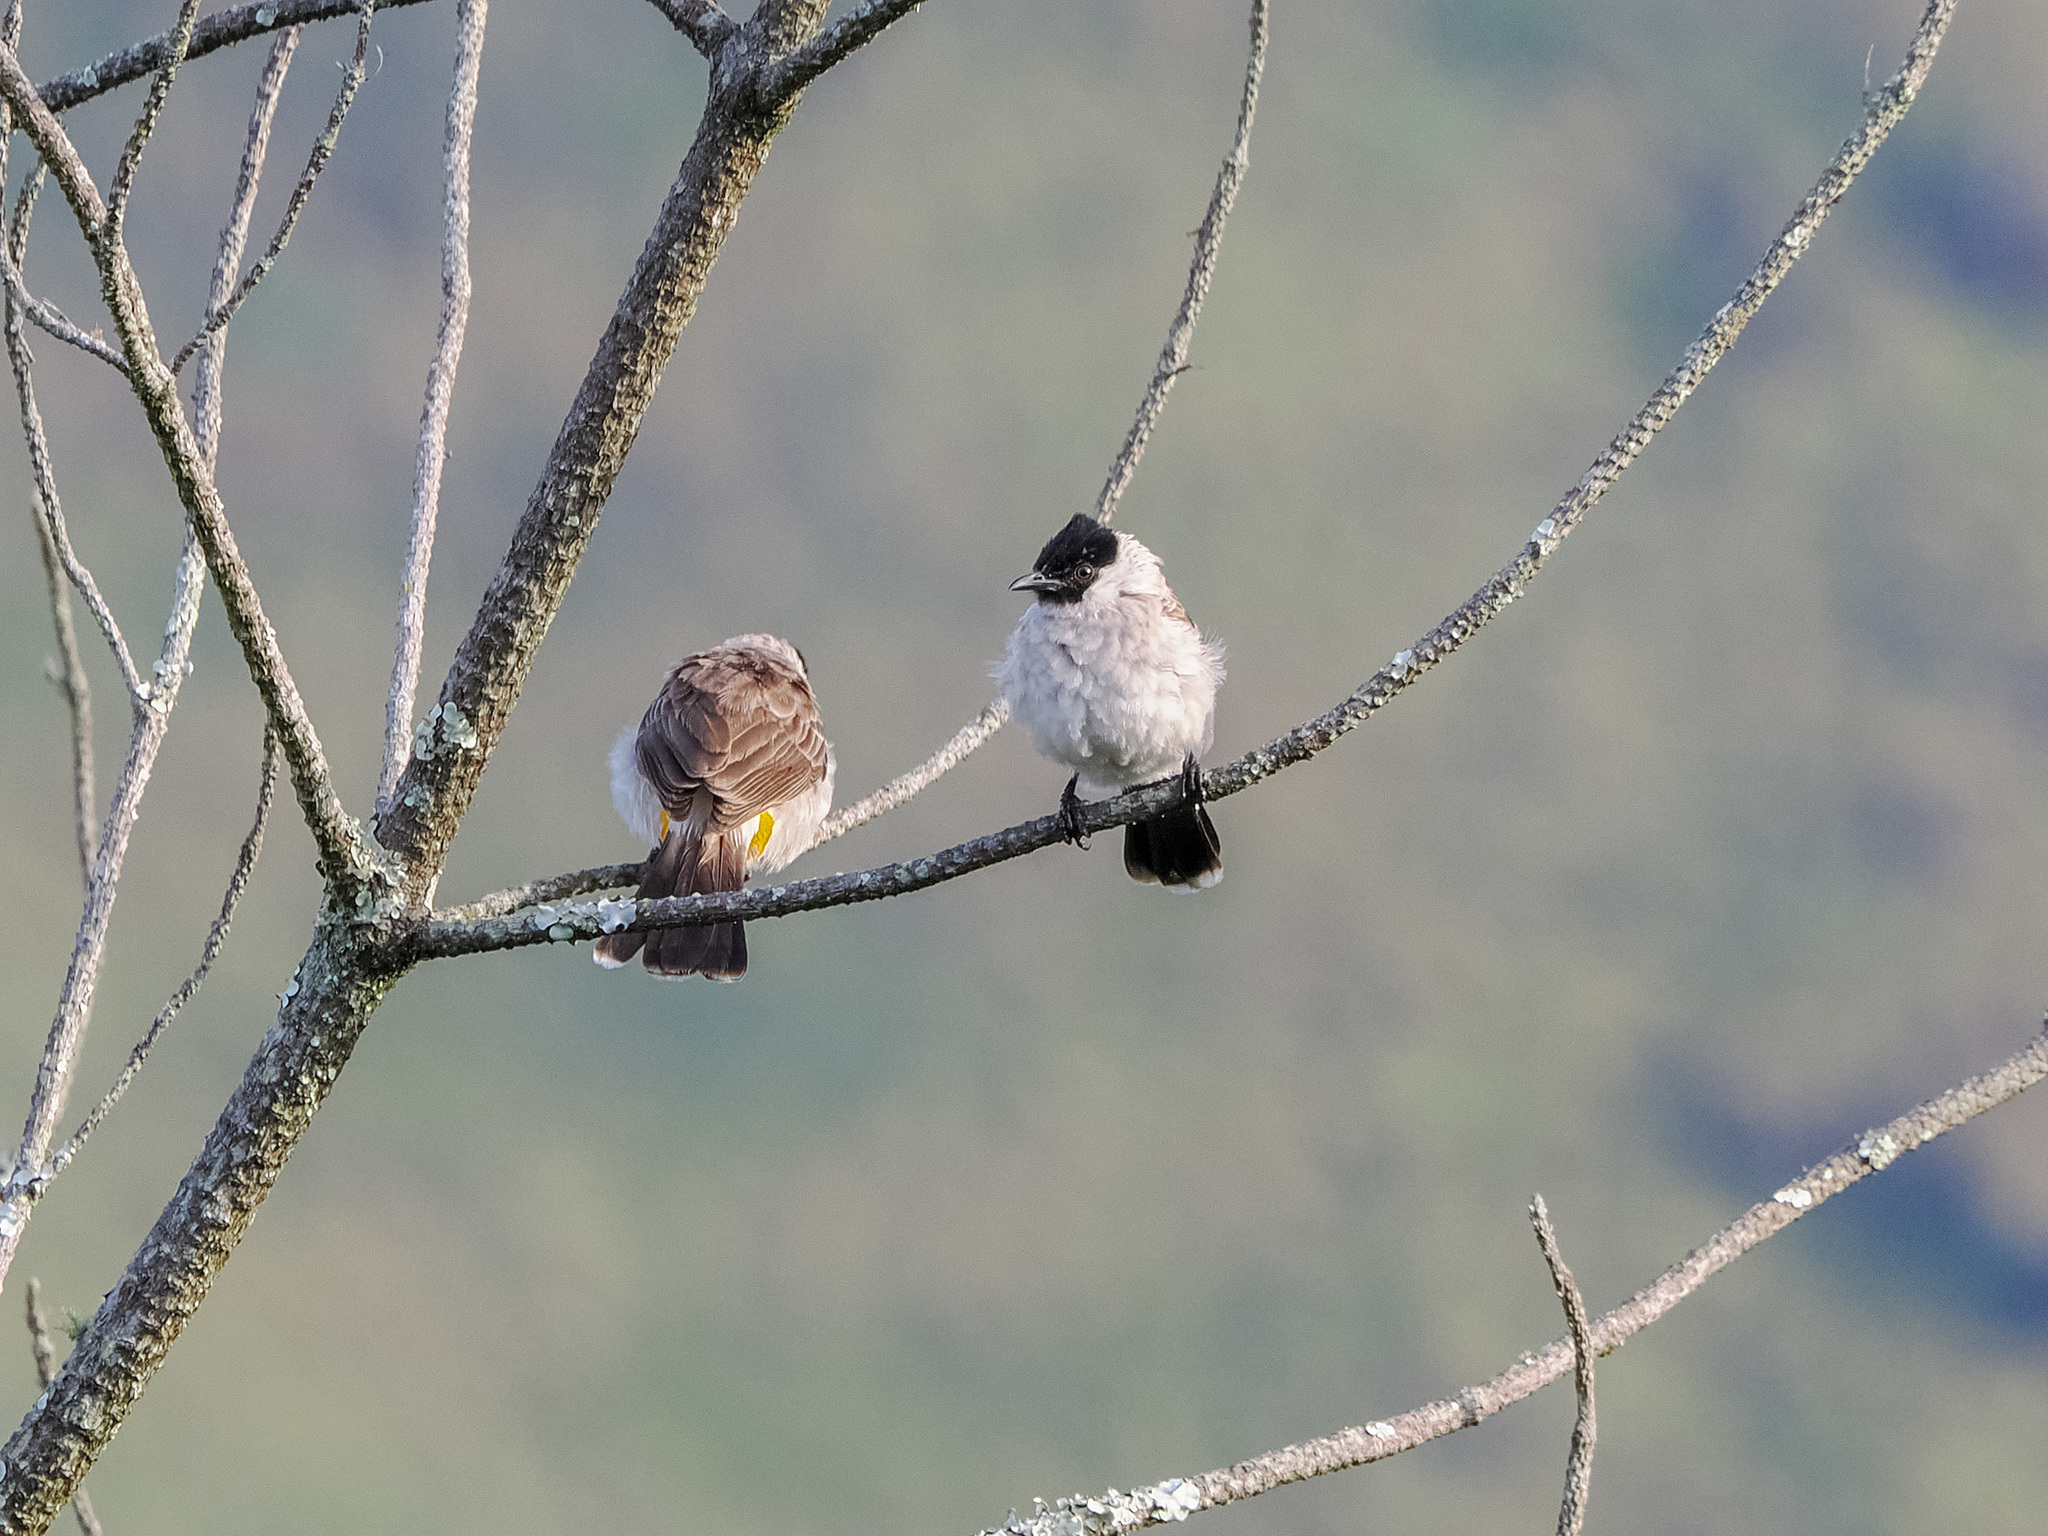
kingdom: Animalia
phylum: Chordata
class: Aves
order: Passeriformes
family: Pycnonotidae
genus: Pycnonotus
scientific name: Pycnonotus aurigaster
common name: Sooty-headed bulbul
